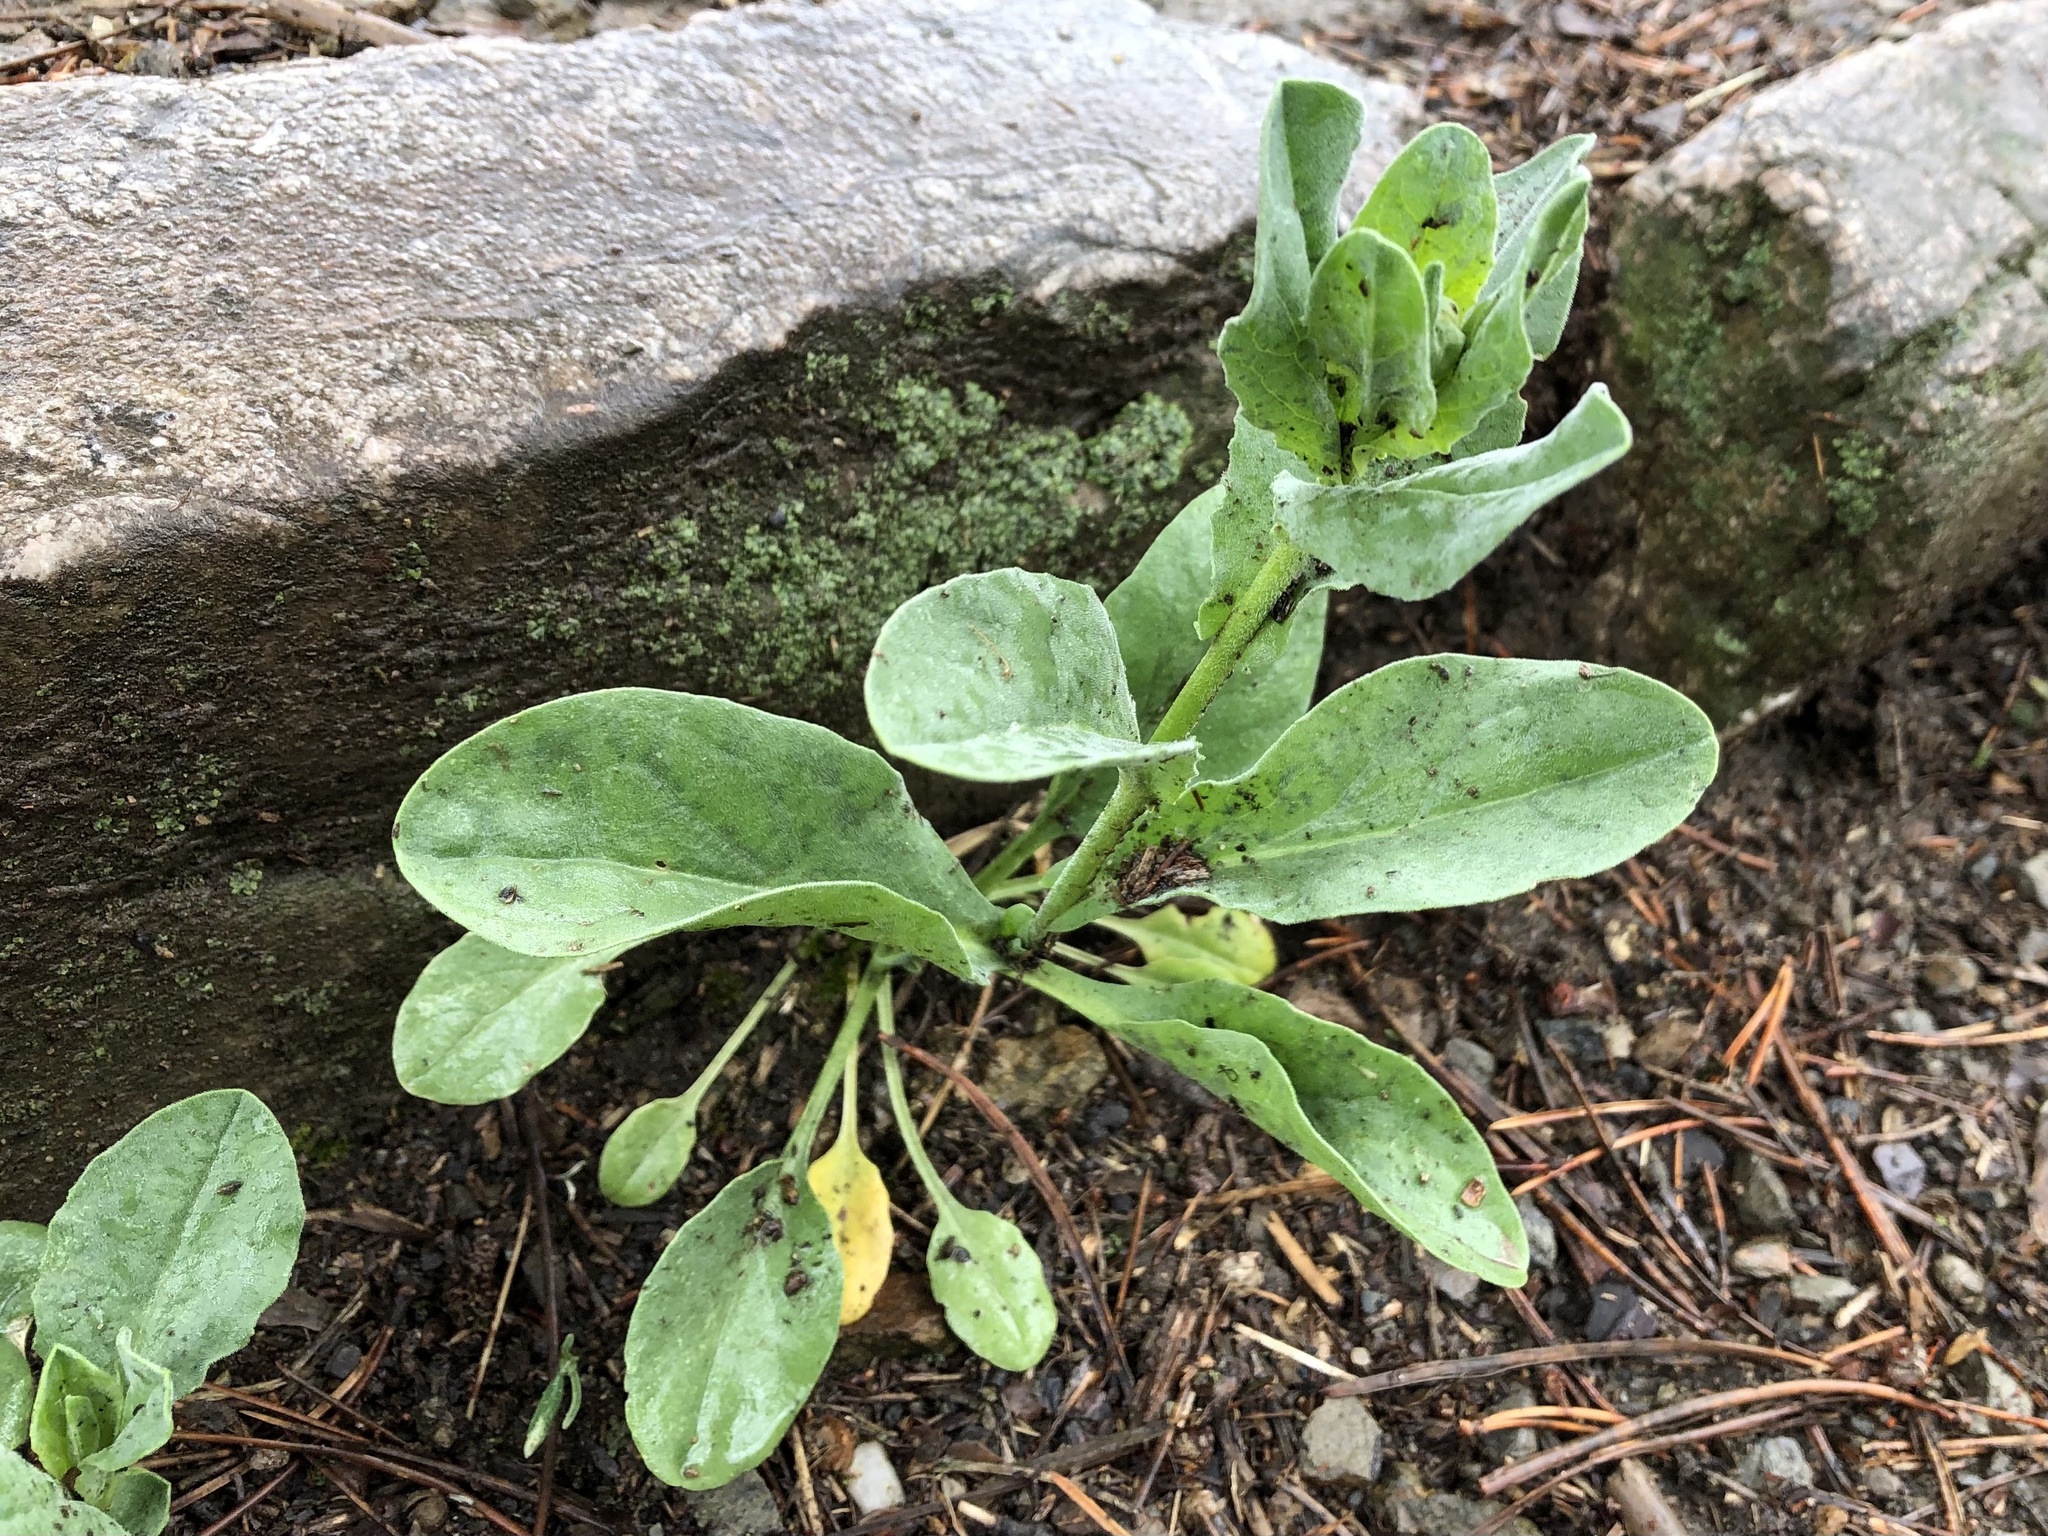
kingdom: Plantae
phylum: Tracheophyta
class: Magnoliopsida
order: Brassicales
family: Brassicaceae
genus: Lepidium
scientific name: Lepidium draba
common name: Hoary cress
